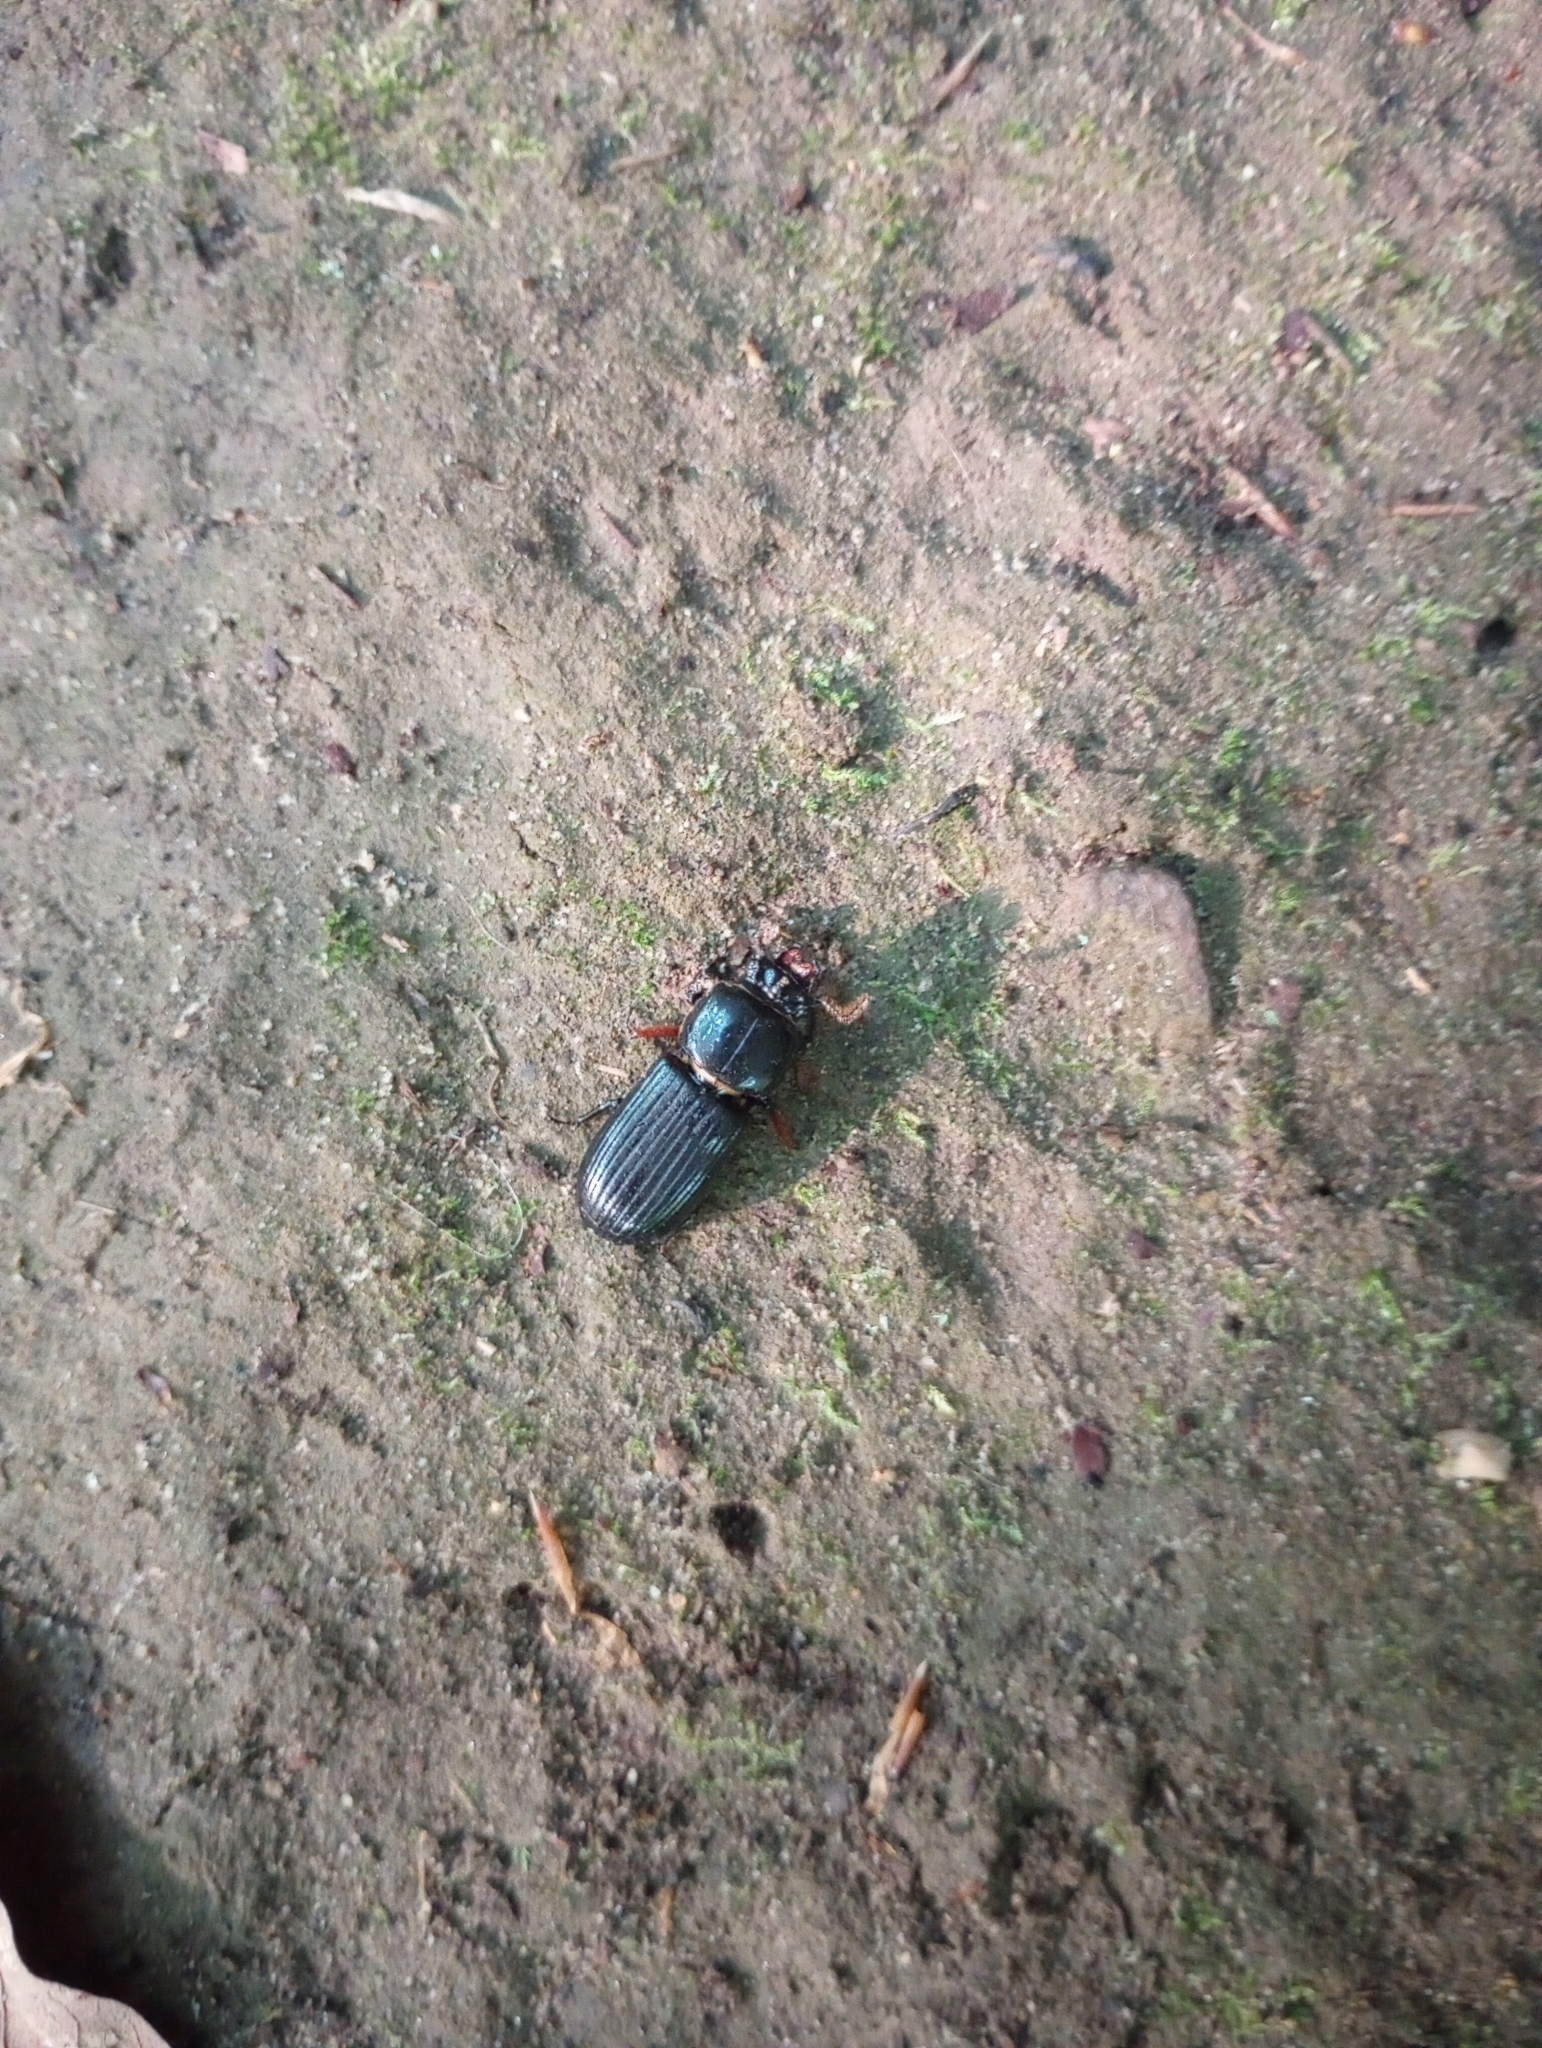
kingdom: Animalia
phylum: Arthropoda
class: Insecta
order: Coleoptera
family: Passalidae
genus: Odontotaenius
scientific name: Odontotaenius disjunctus
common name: Patent leather beetle
